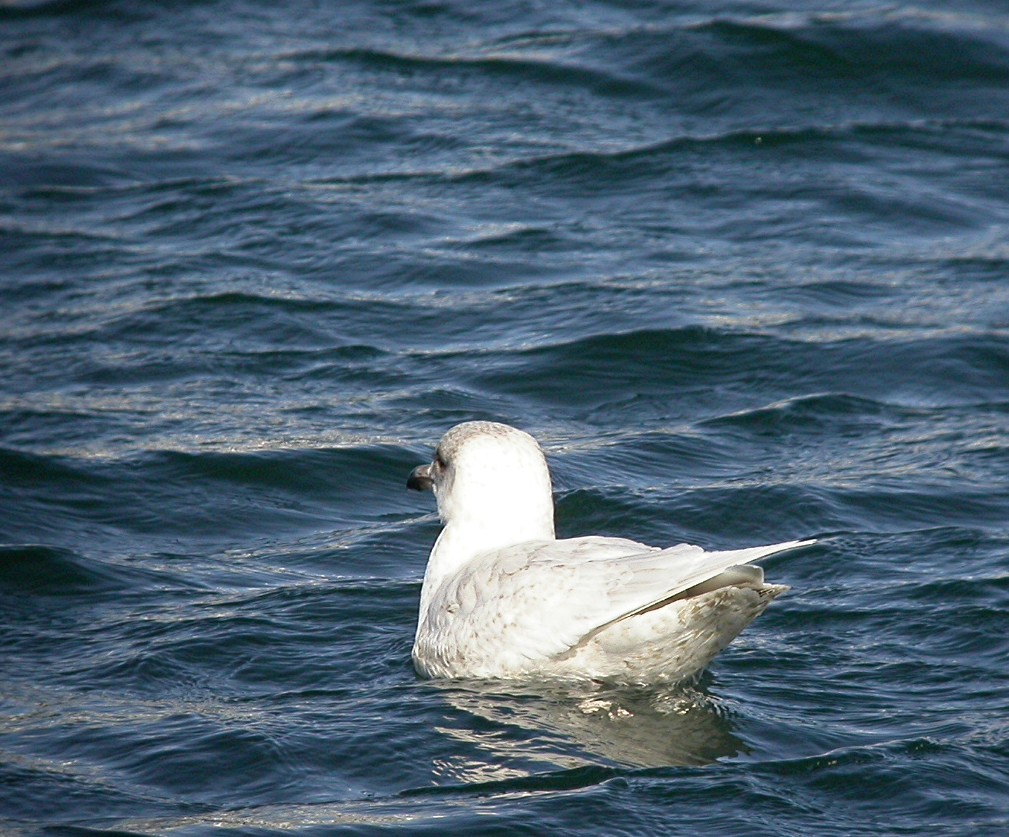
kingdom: Animalia
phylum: Chordata
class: Aves
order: Charadriiformes
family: Laridae
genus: Larus
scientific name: Larus glaucoides
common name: Iceland gull
